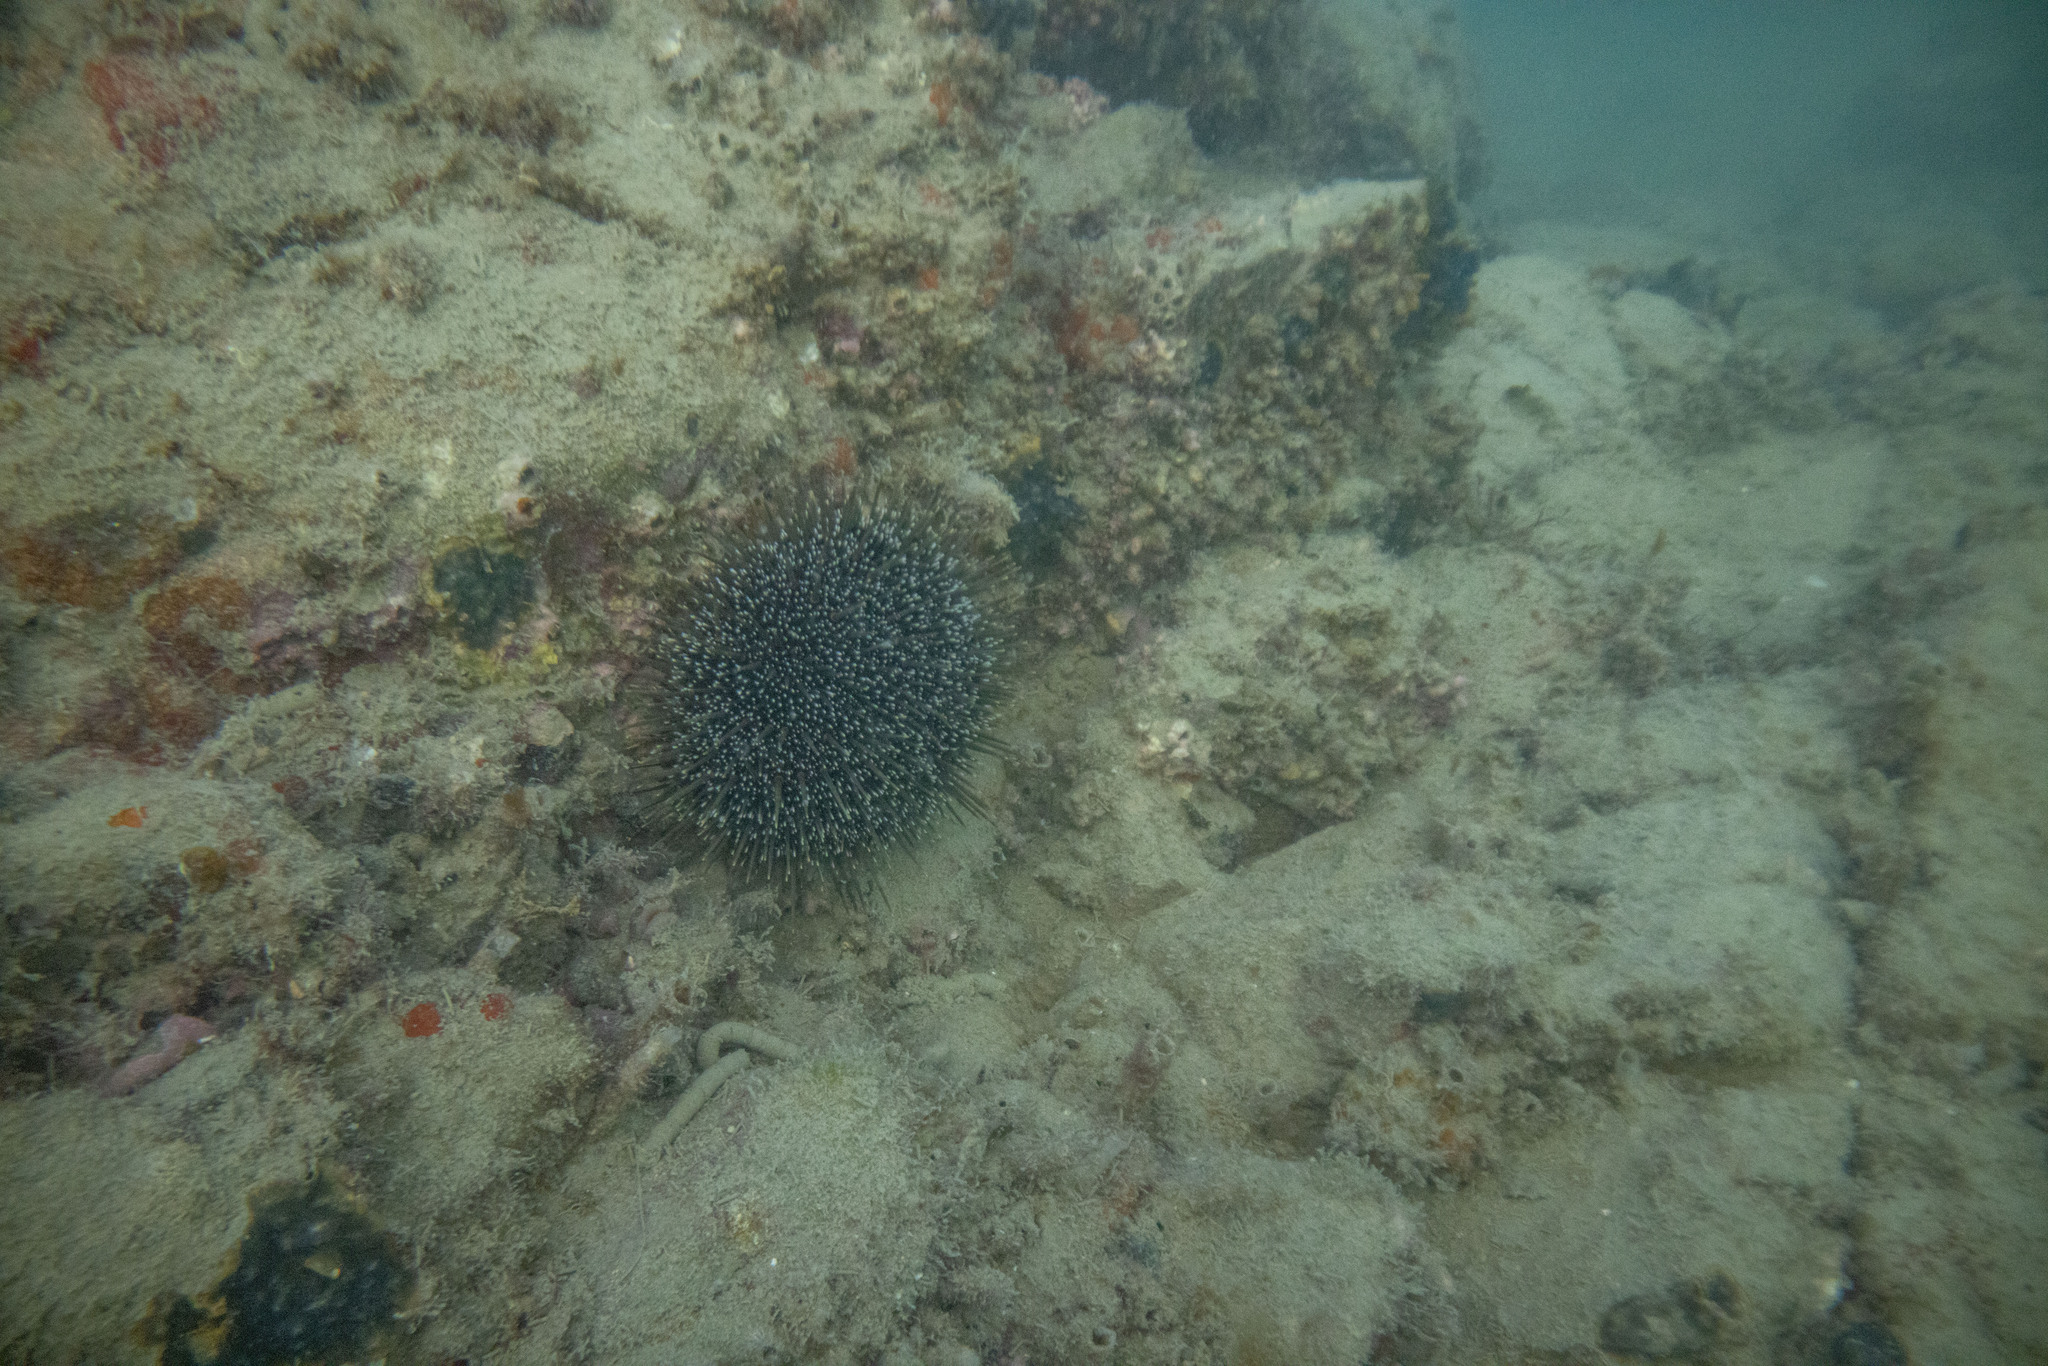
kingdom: Animalia
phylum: Echinodermata
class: Echinoidea
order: Camarodonta
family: Echinometridae
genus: Evechinus
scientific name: Evechinus chloroticus
